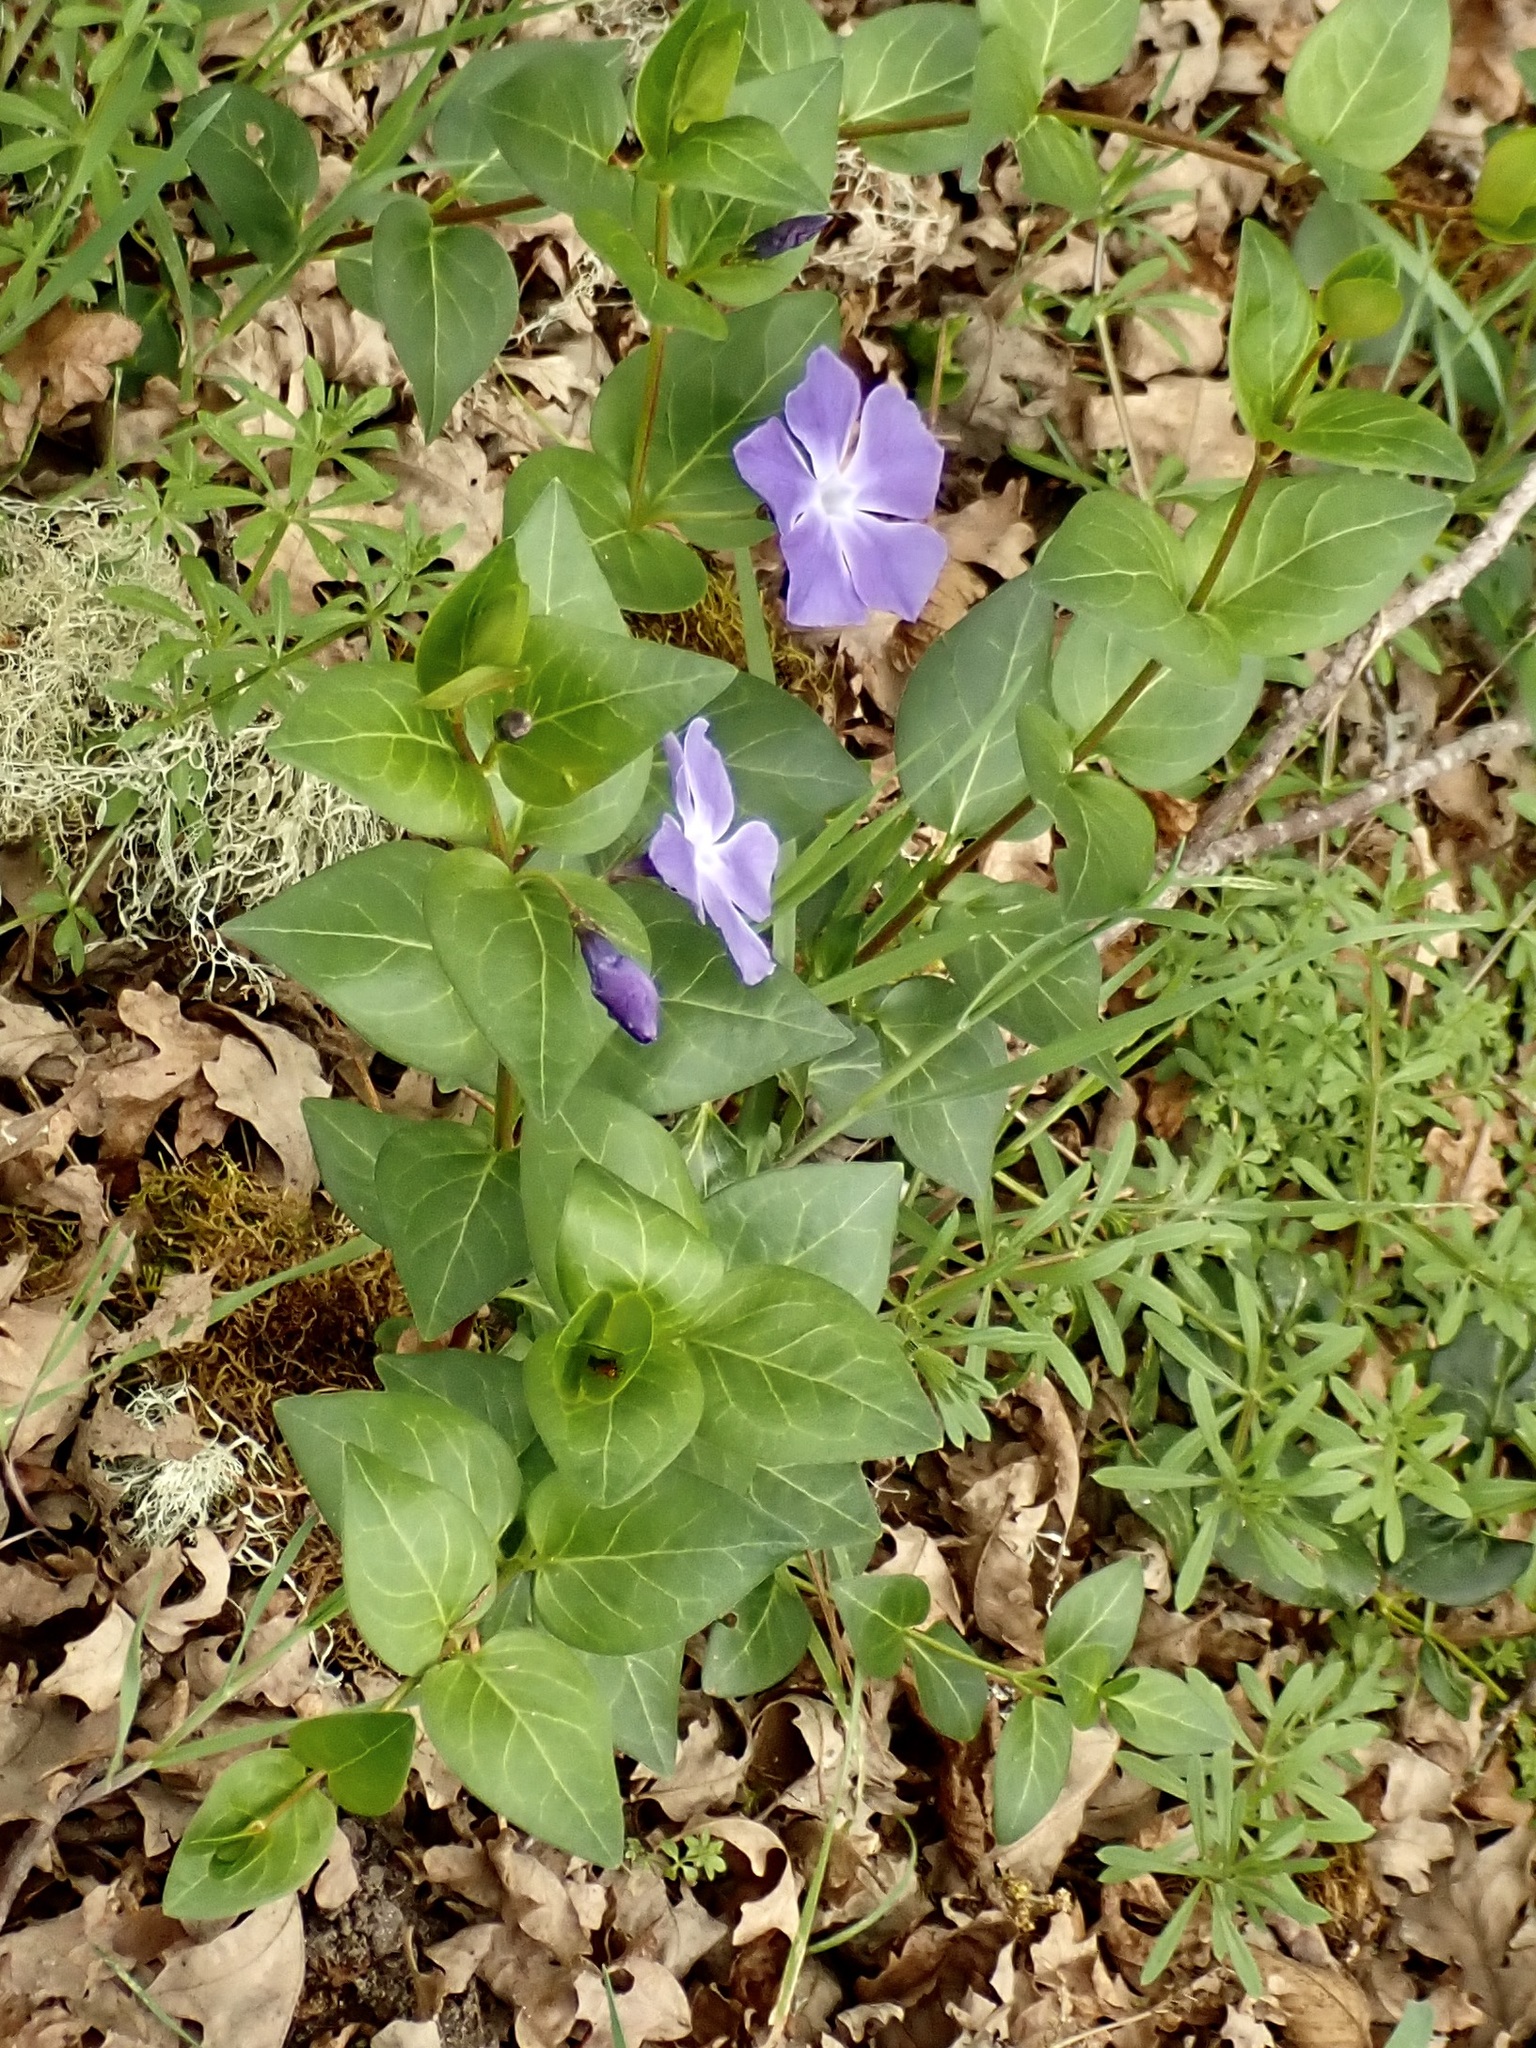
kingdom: Plantae
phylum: Tracheophyta
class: Magnoliopsida
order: Gentianales
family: Apocynaceae
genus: Vinca
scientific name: Vinca major
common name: Greater periwinkle
